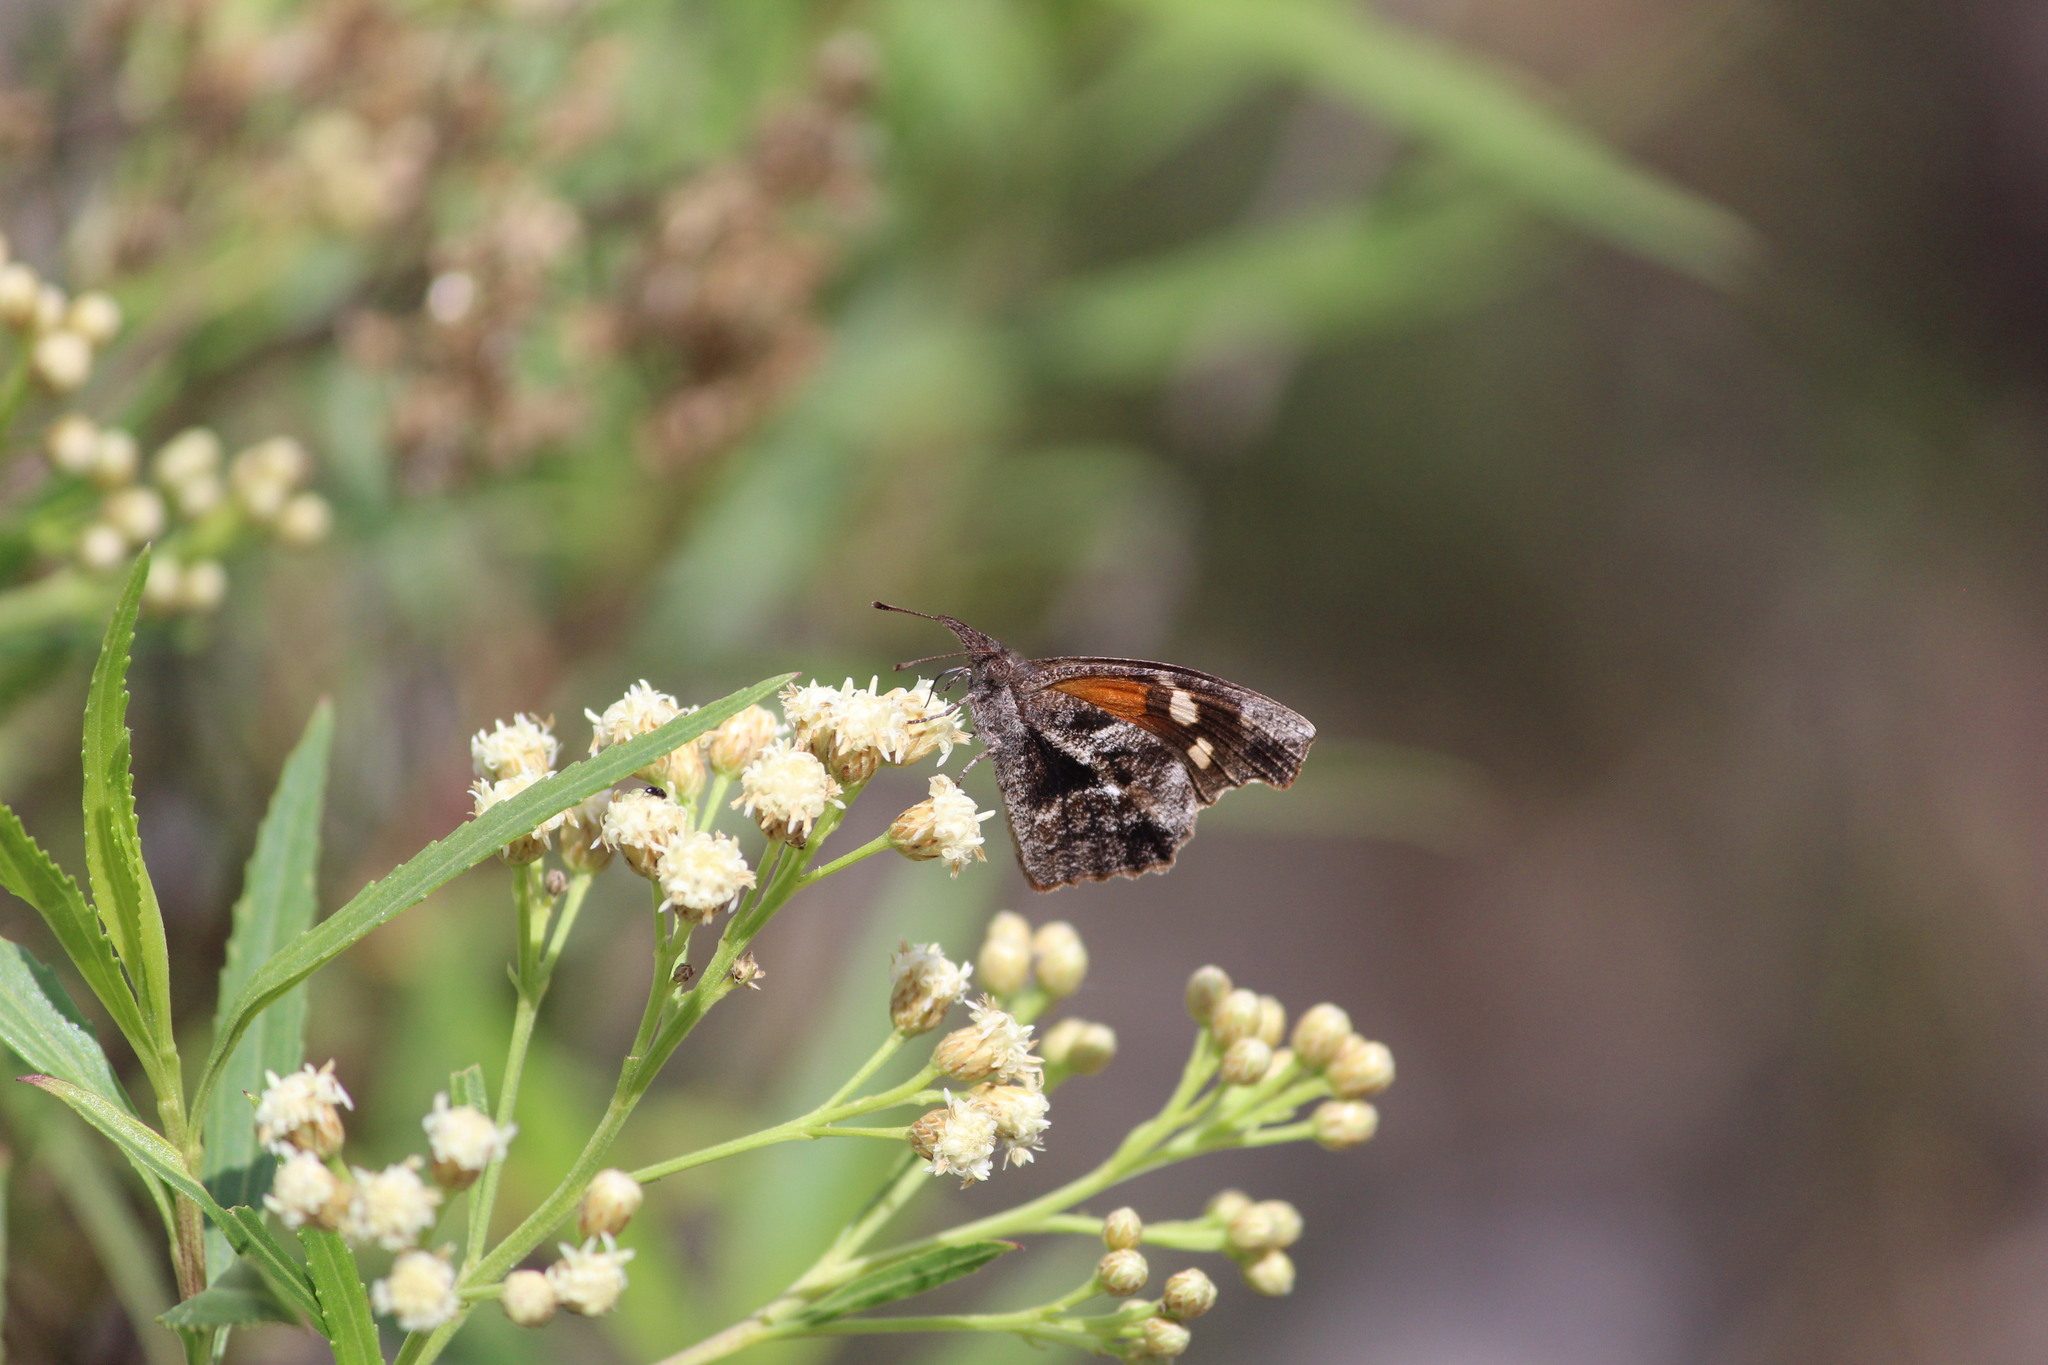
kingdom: Animalia
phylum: Arthropoda
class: Insecta
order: Lepidoptera
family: Nymphalidae
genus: Libytheana
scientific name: Libytheana carinenta
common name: American snout
